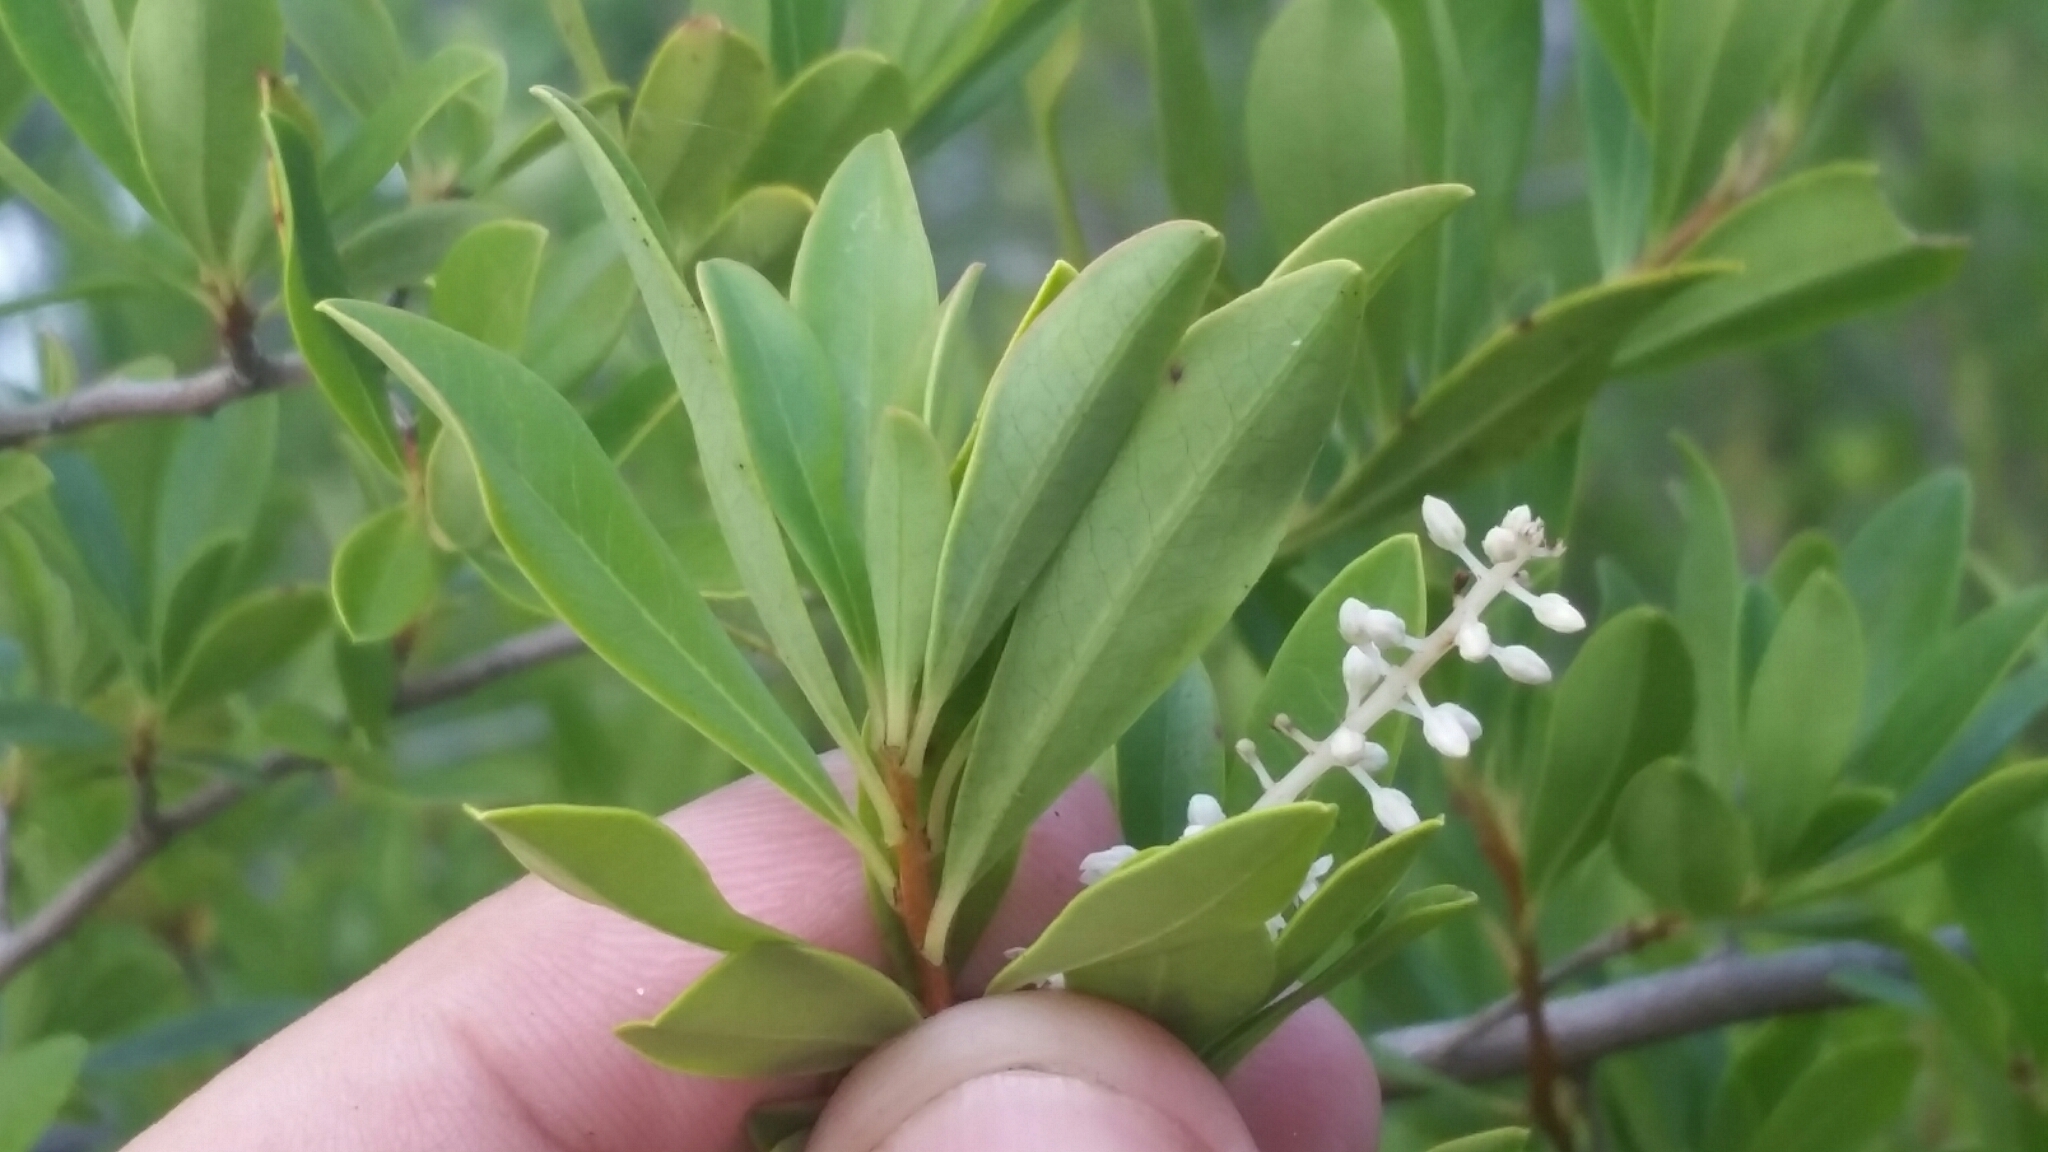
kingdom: Plantae
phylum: Tracheophyta
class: Magnoliopsida
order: Ericales
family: Cyrillaceae
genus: Cyrilla
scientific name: Cyrilla racemiflora
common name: Black titi
